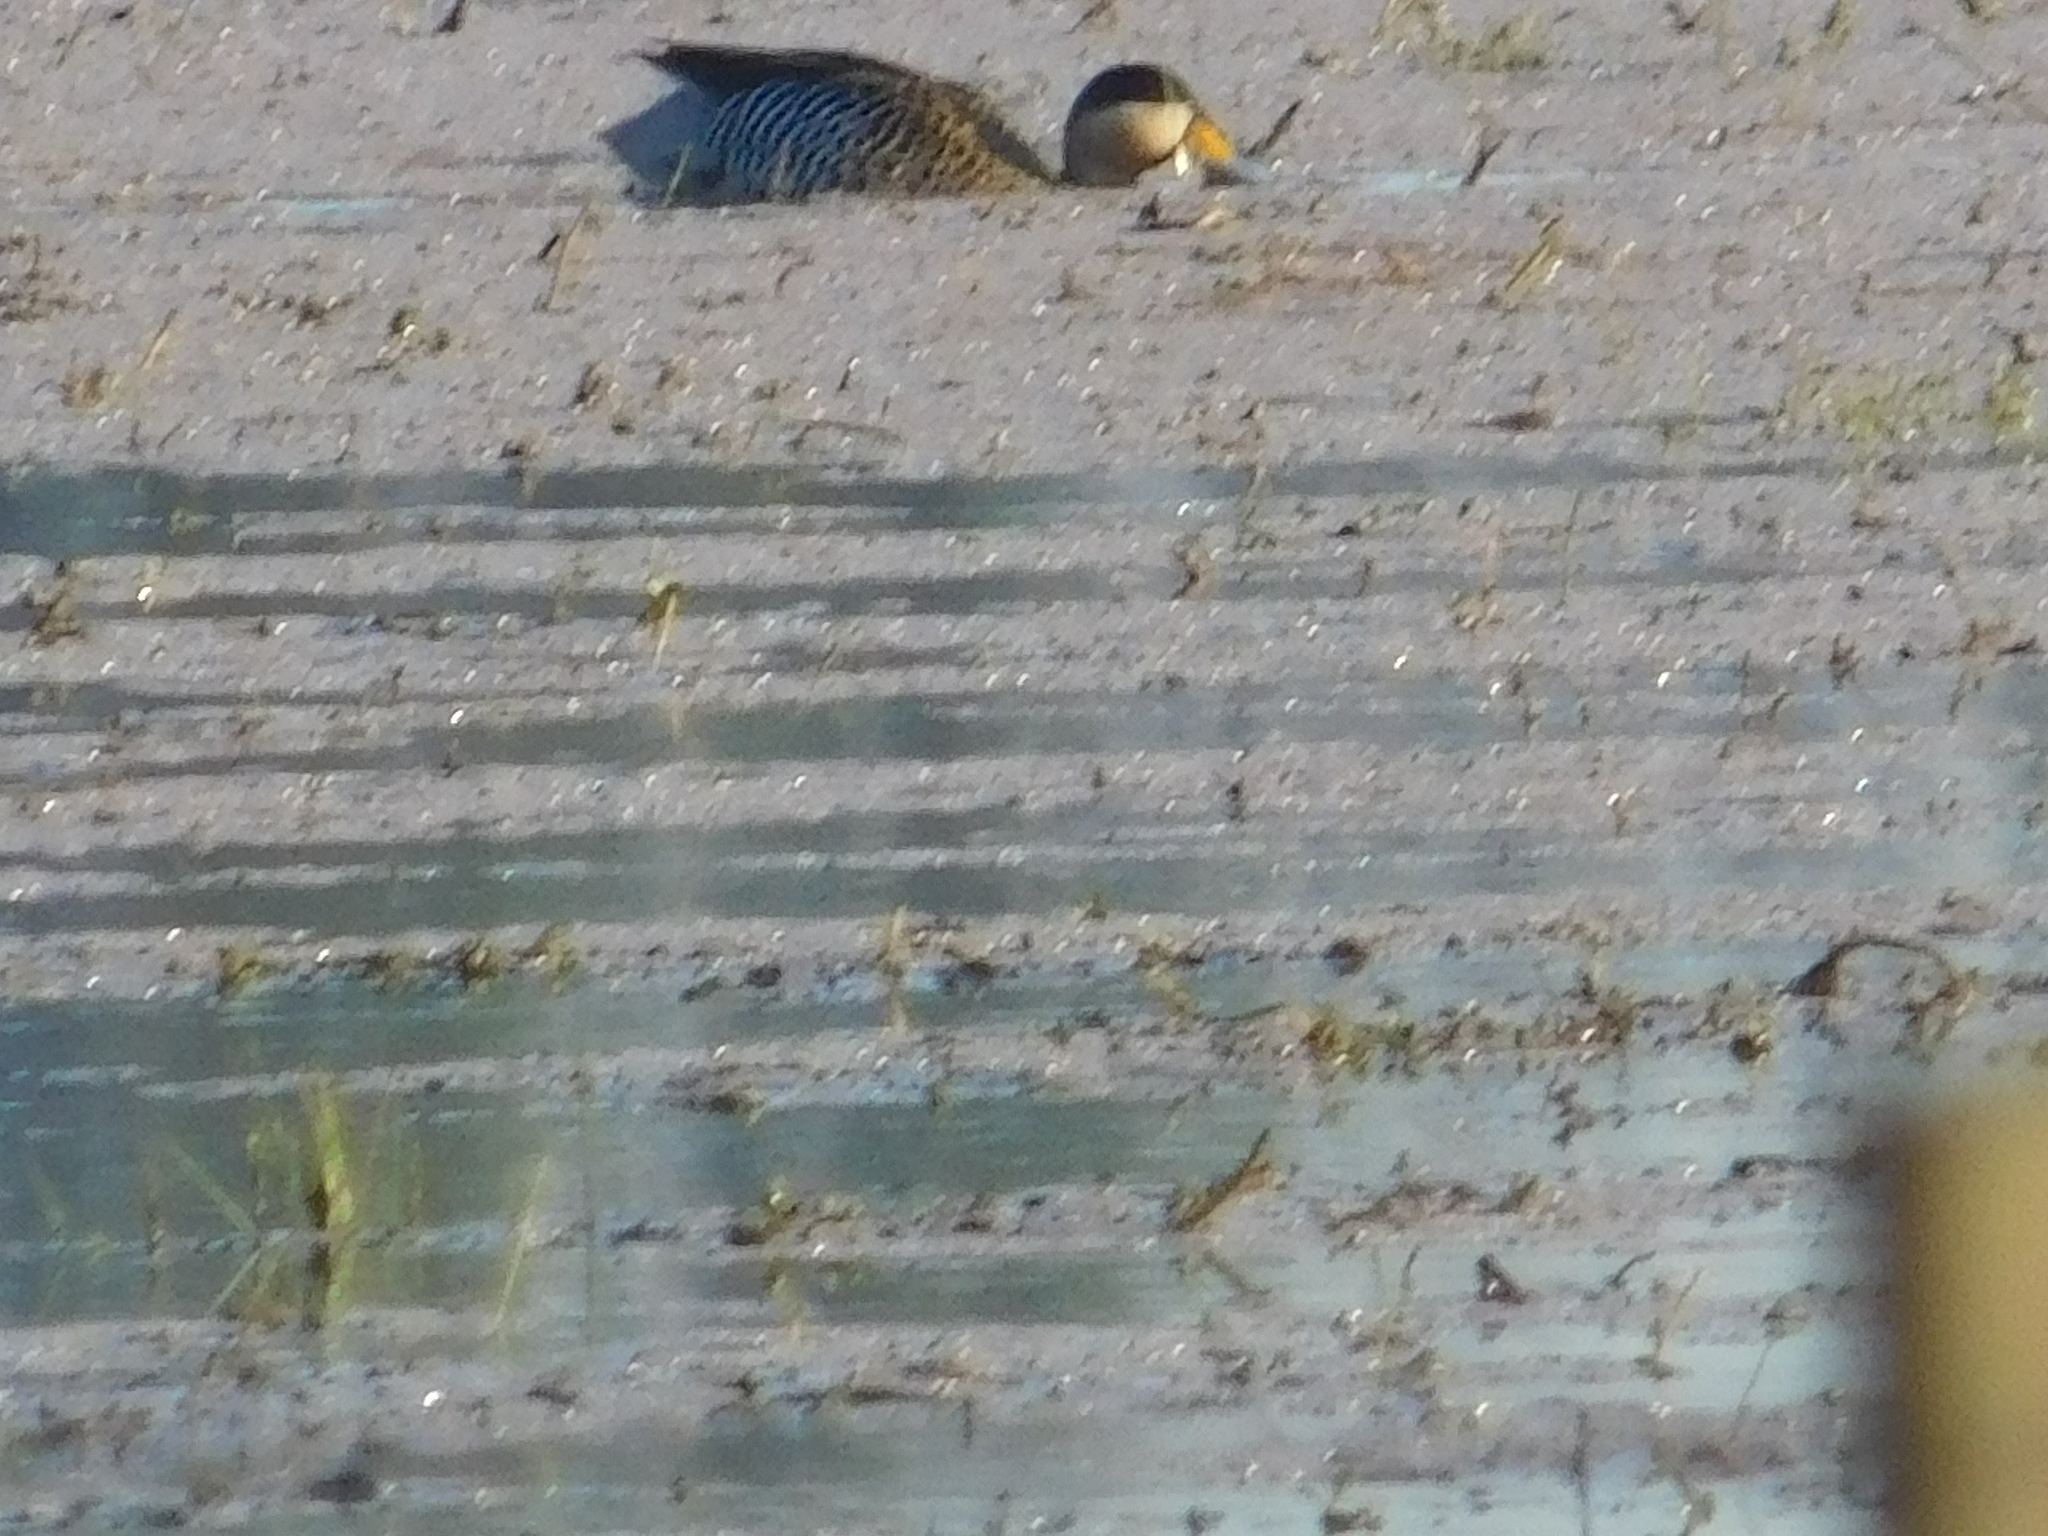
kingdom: Animalia
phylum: Chordata
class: Aves
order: Anseriformes
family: Anatidae
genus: Spatula
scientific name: Spatula versicolor
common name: Silver teal
